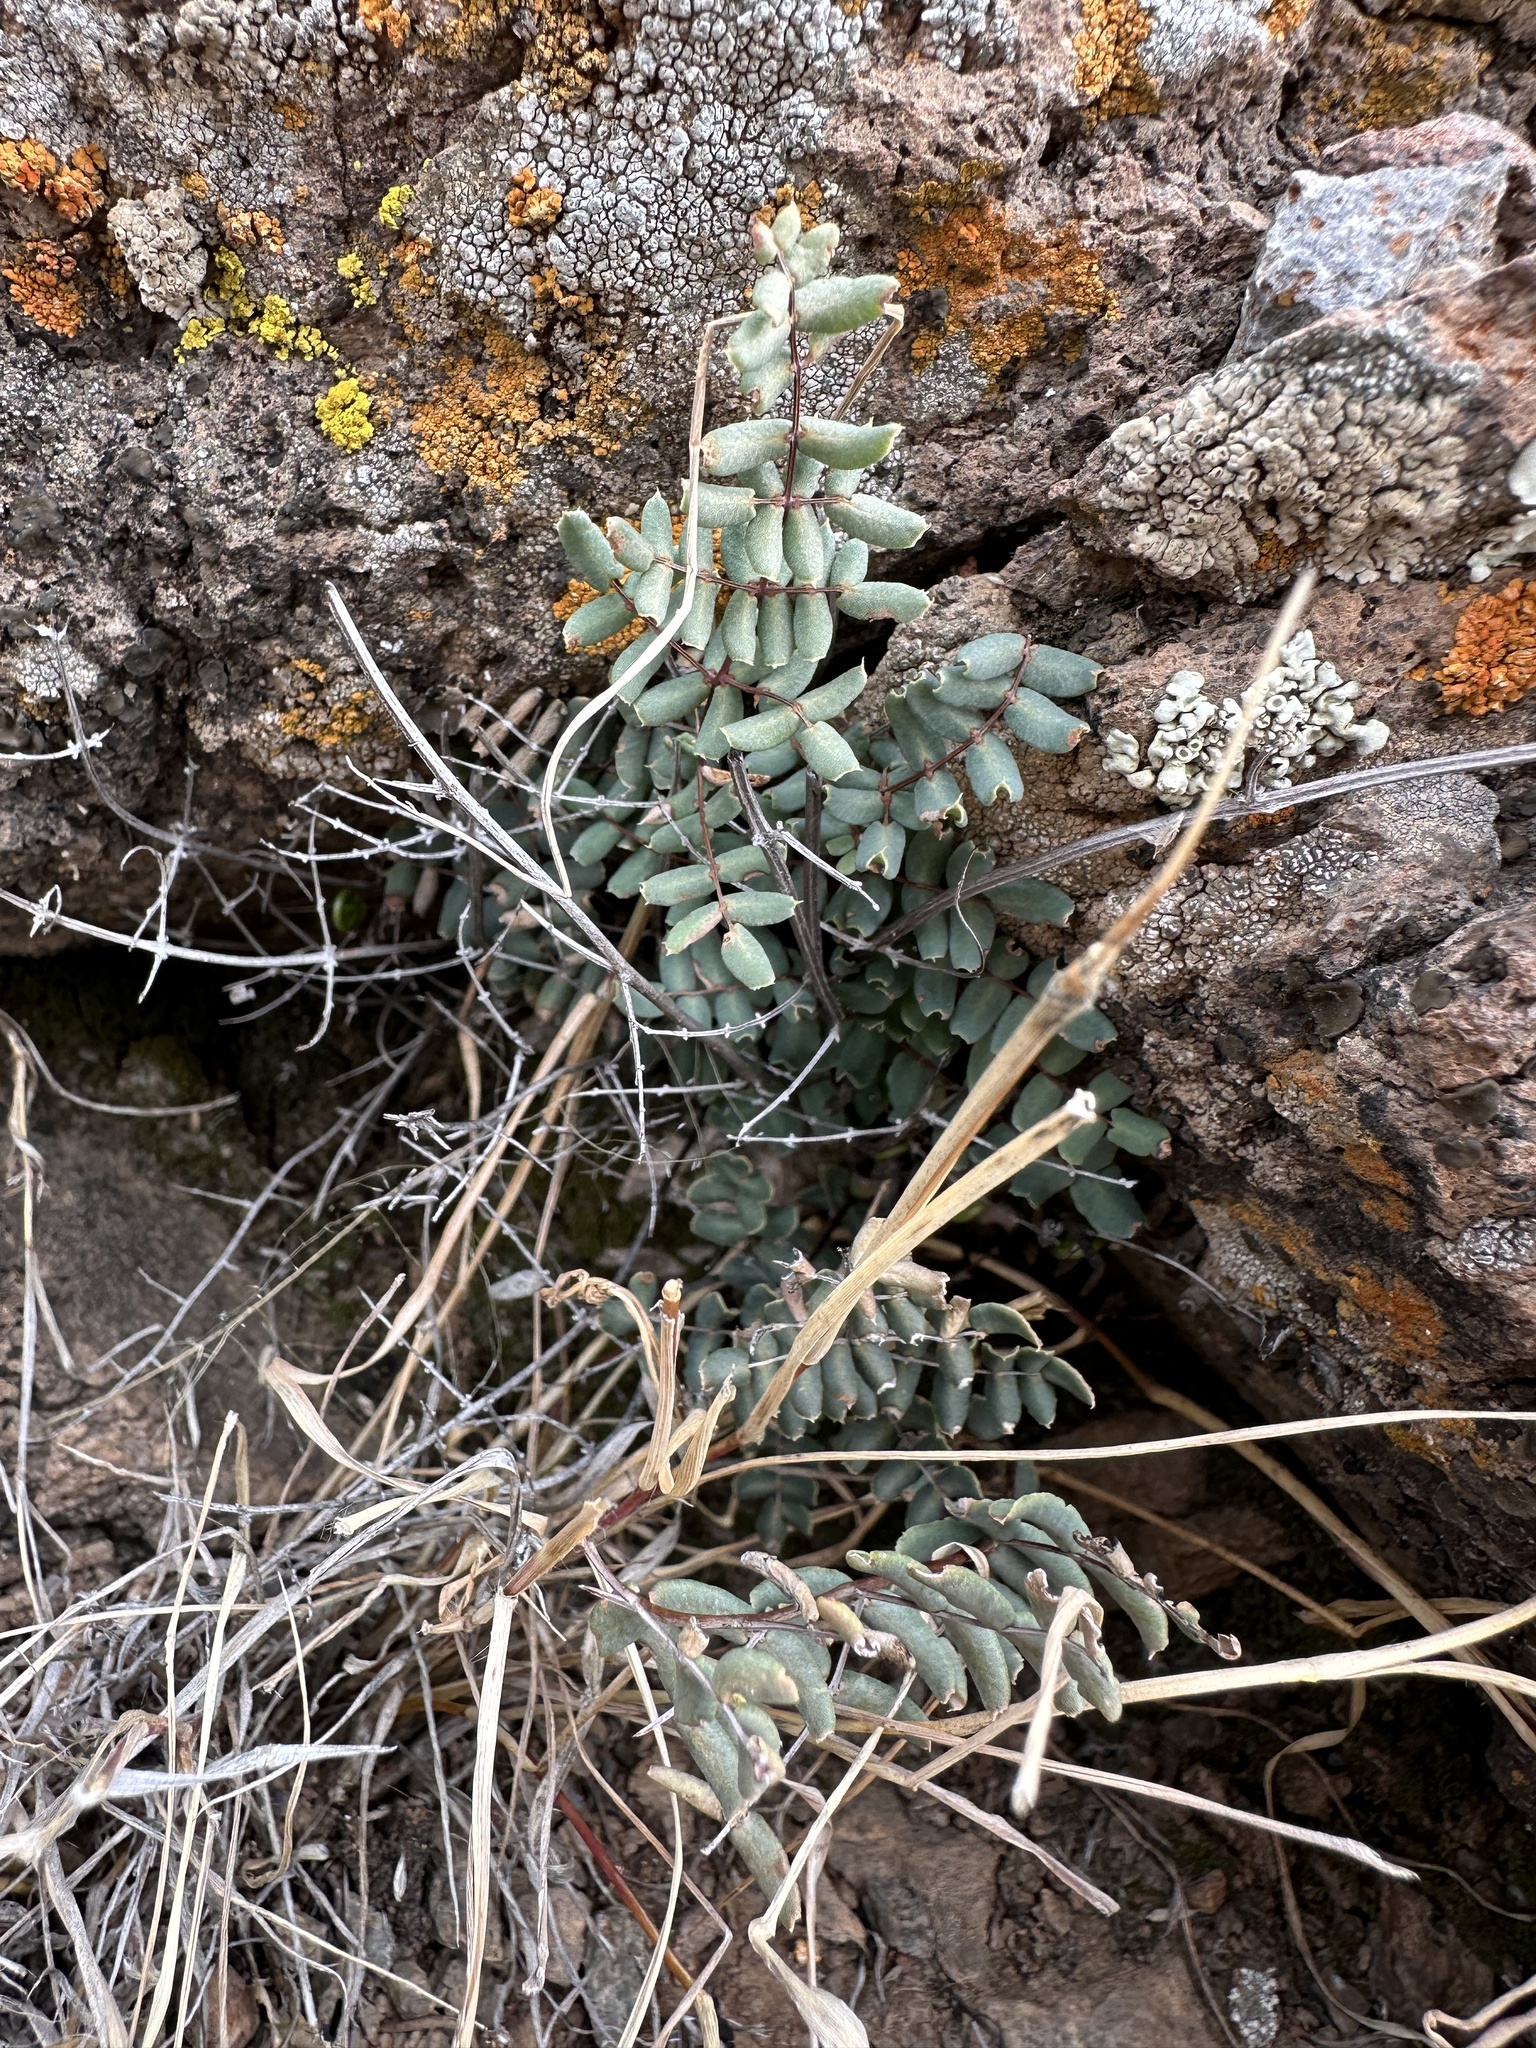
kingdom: Plantae
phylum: Tracheophyta
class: Polypodiopsida
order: Polypodiales
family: Pteridaceae
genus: Pellaea
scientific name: Pellaea truncata
